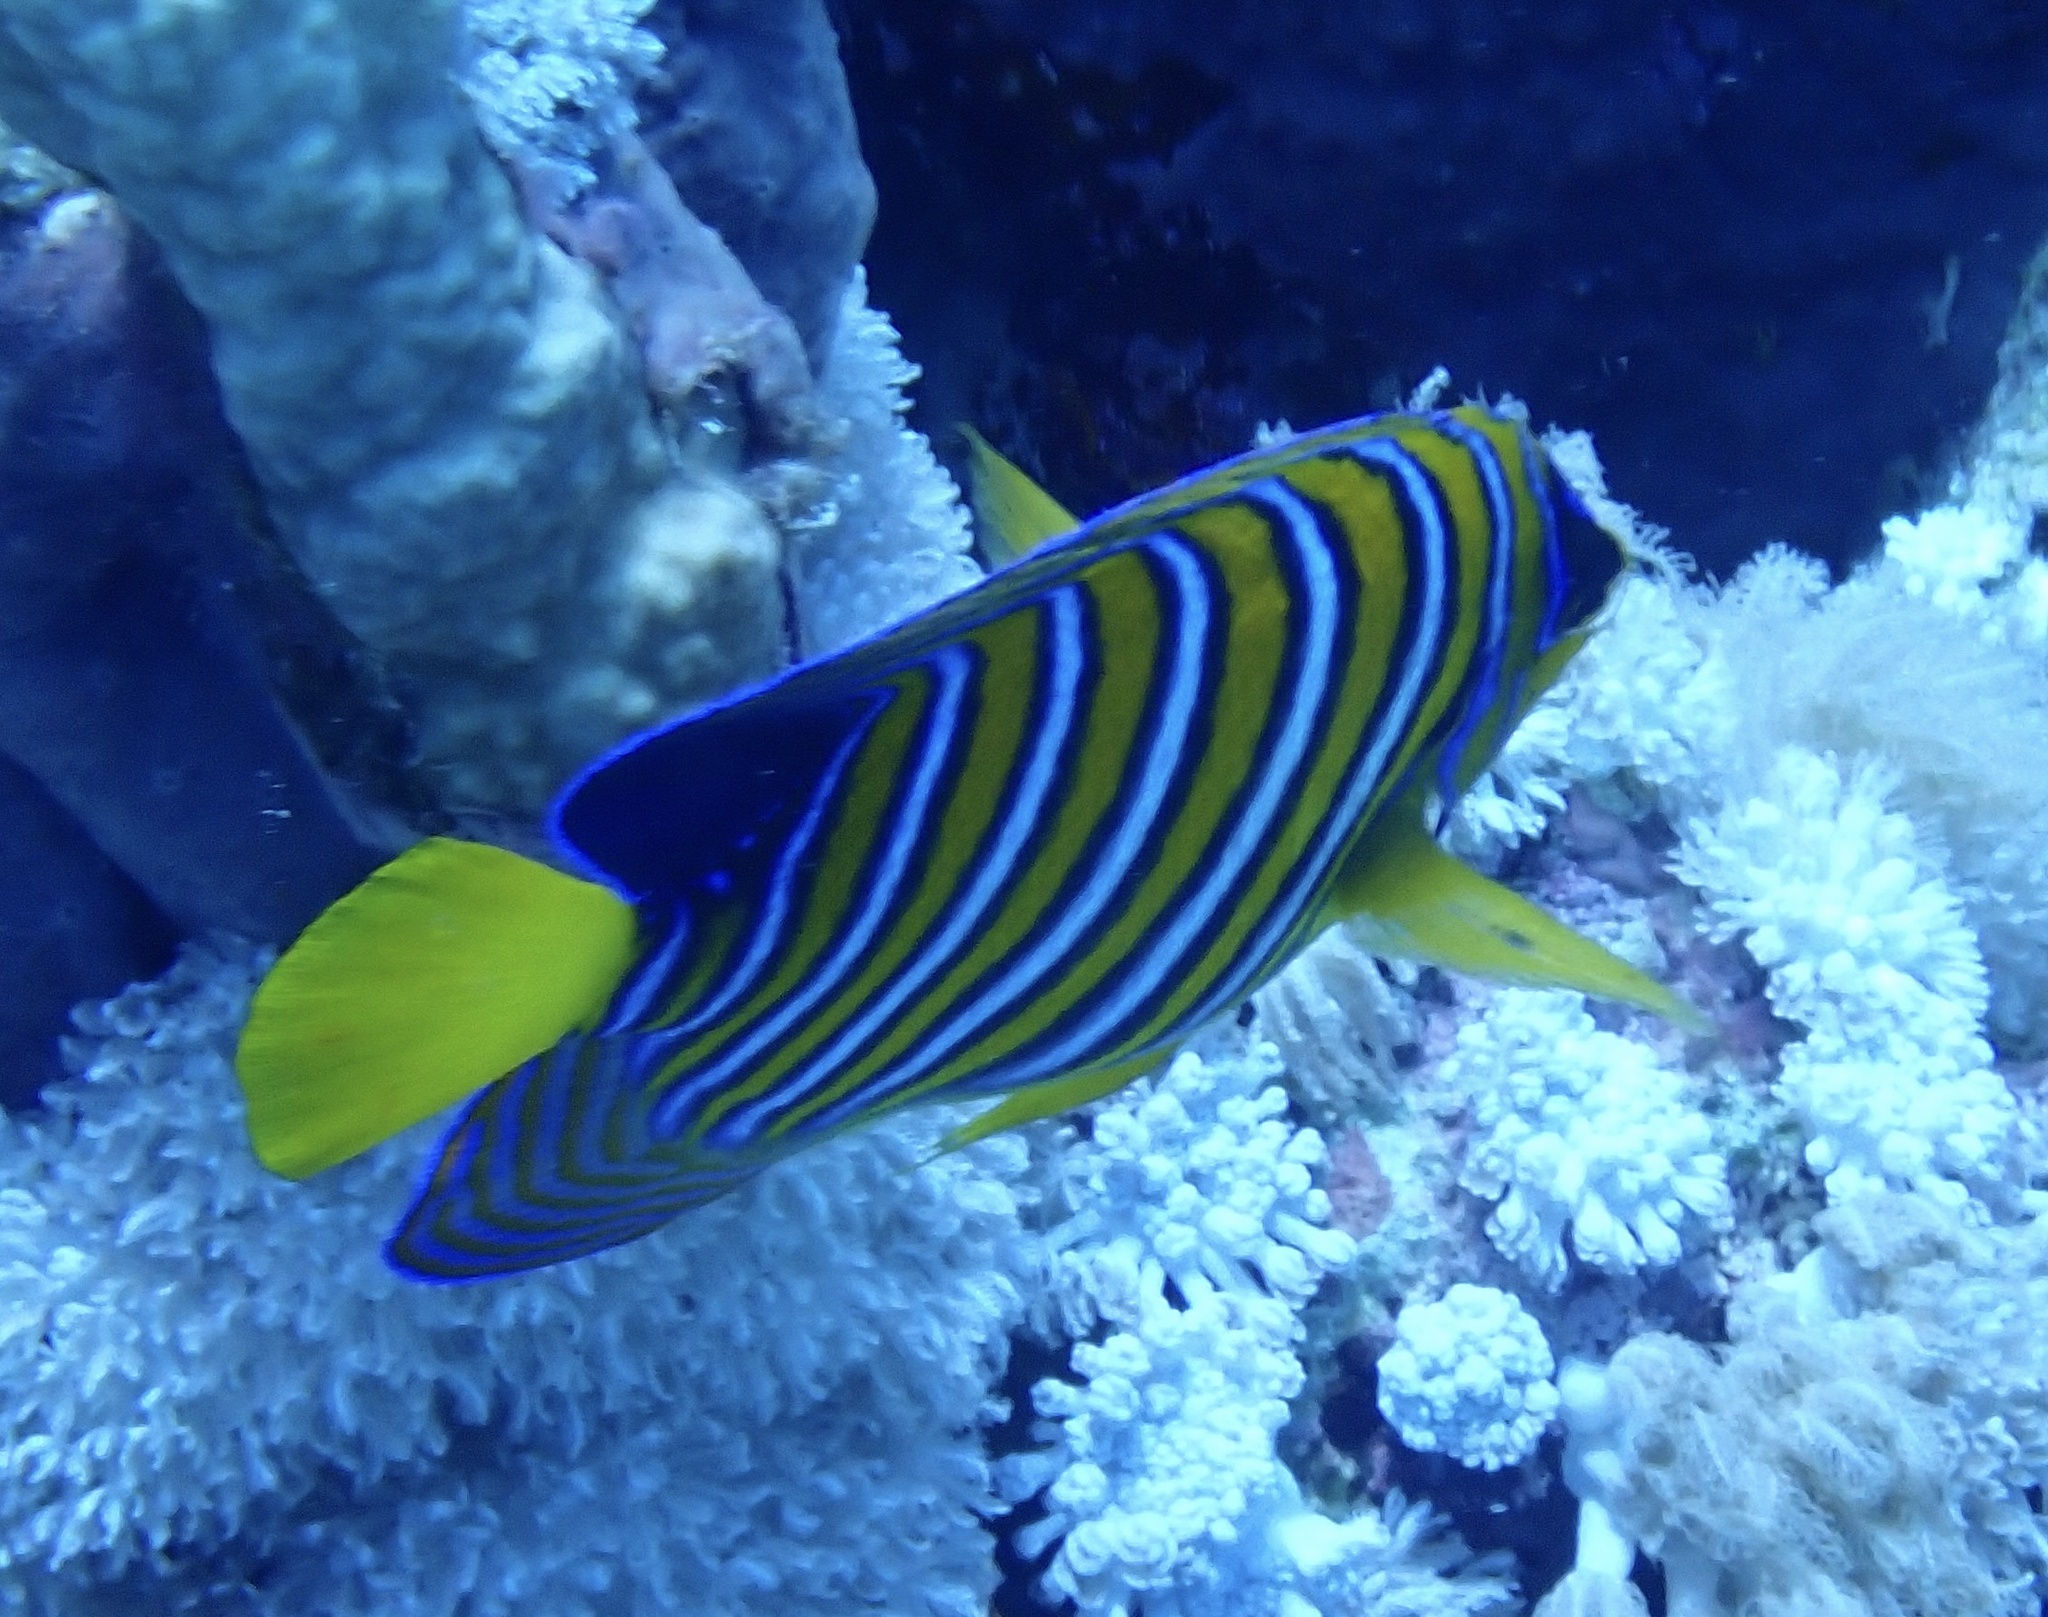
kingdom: Animalia
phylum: Chordata
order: Perciformes
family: Pomacanthidae
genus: Pygoplites
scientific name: Pygoplites diacanthus
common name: Regal angelfish
